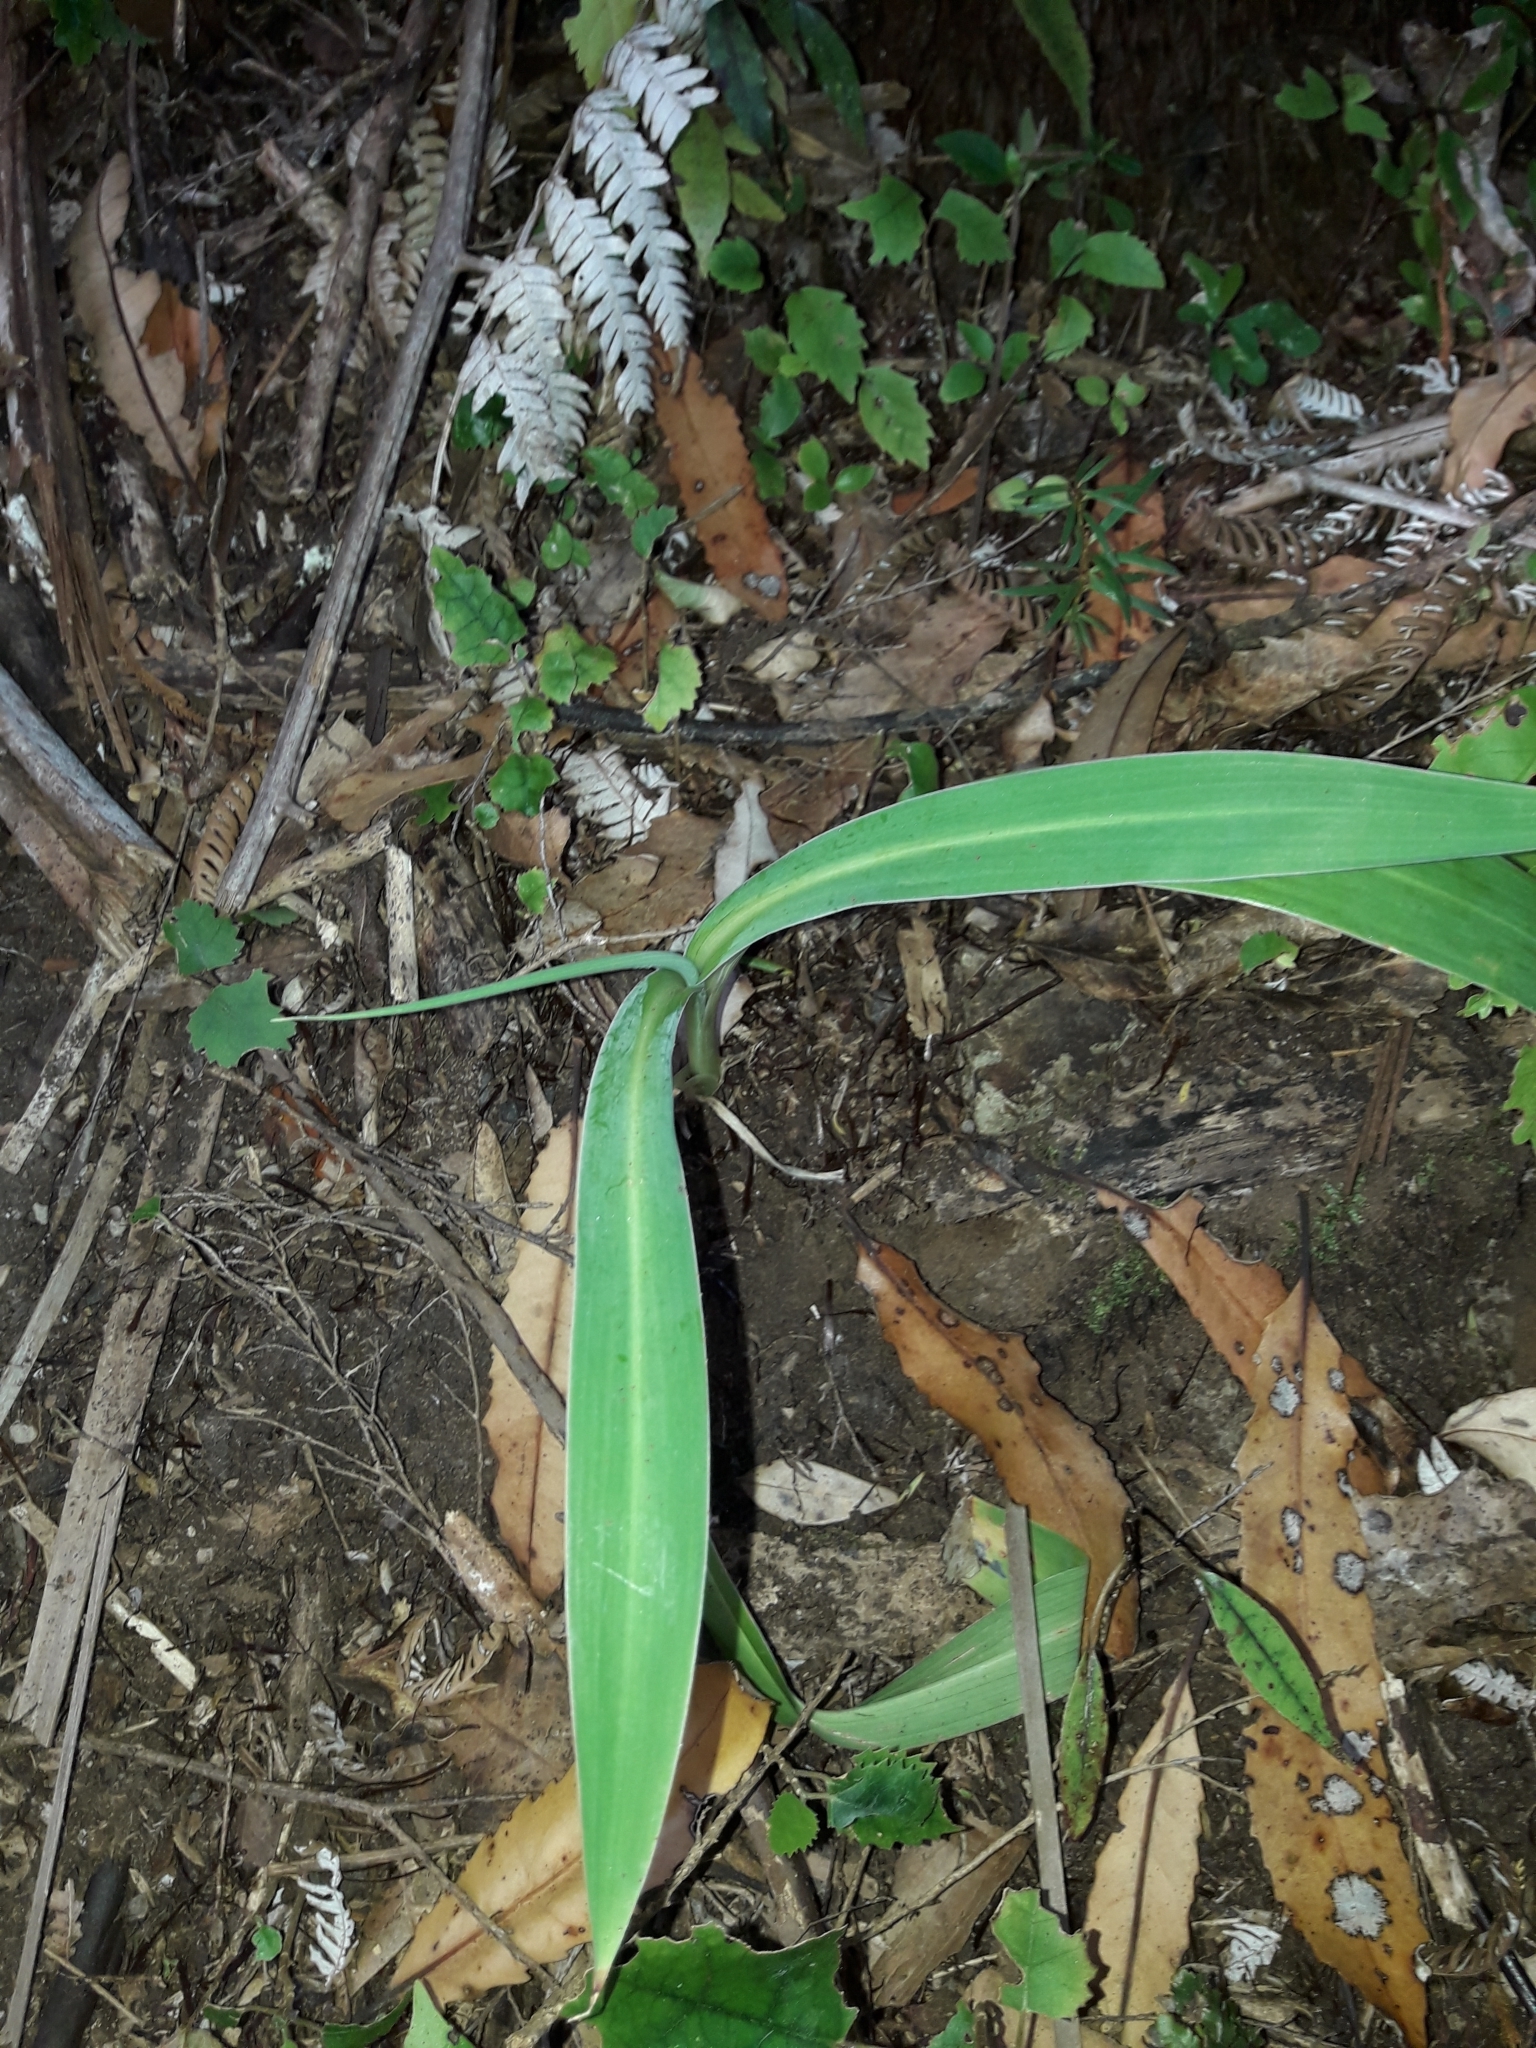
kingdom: Plantae
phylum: Tracheophyta
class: Liliopsida
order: Asparagales
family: Asparagaceae
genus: Arthropodium
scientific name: Arthropodium cirratum
